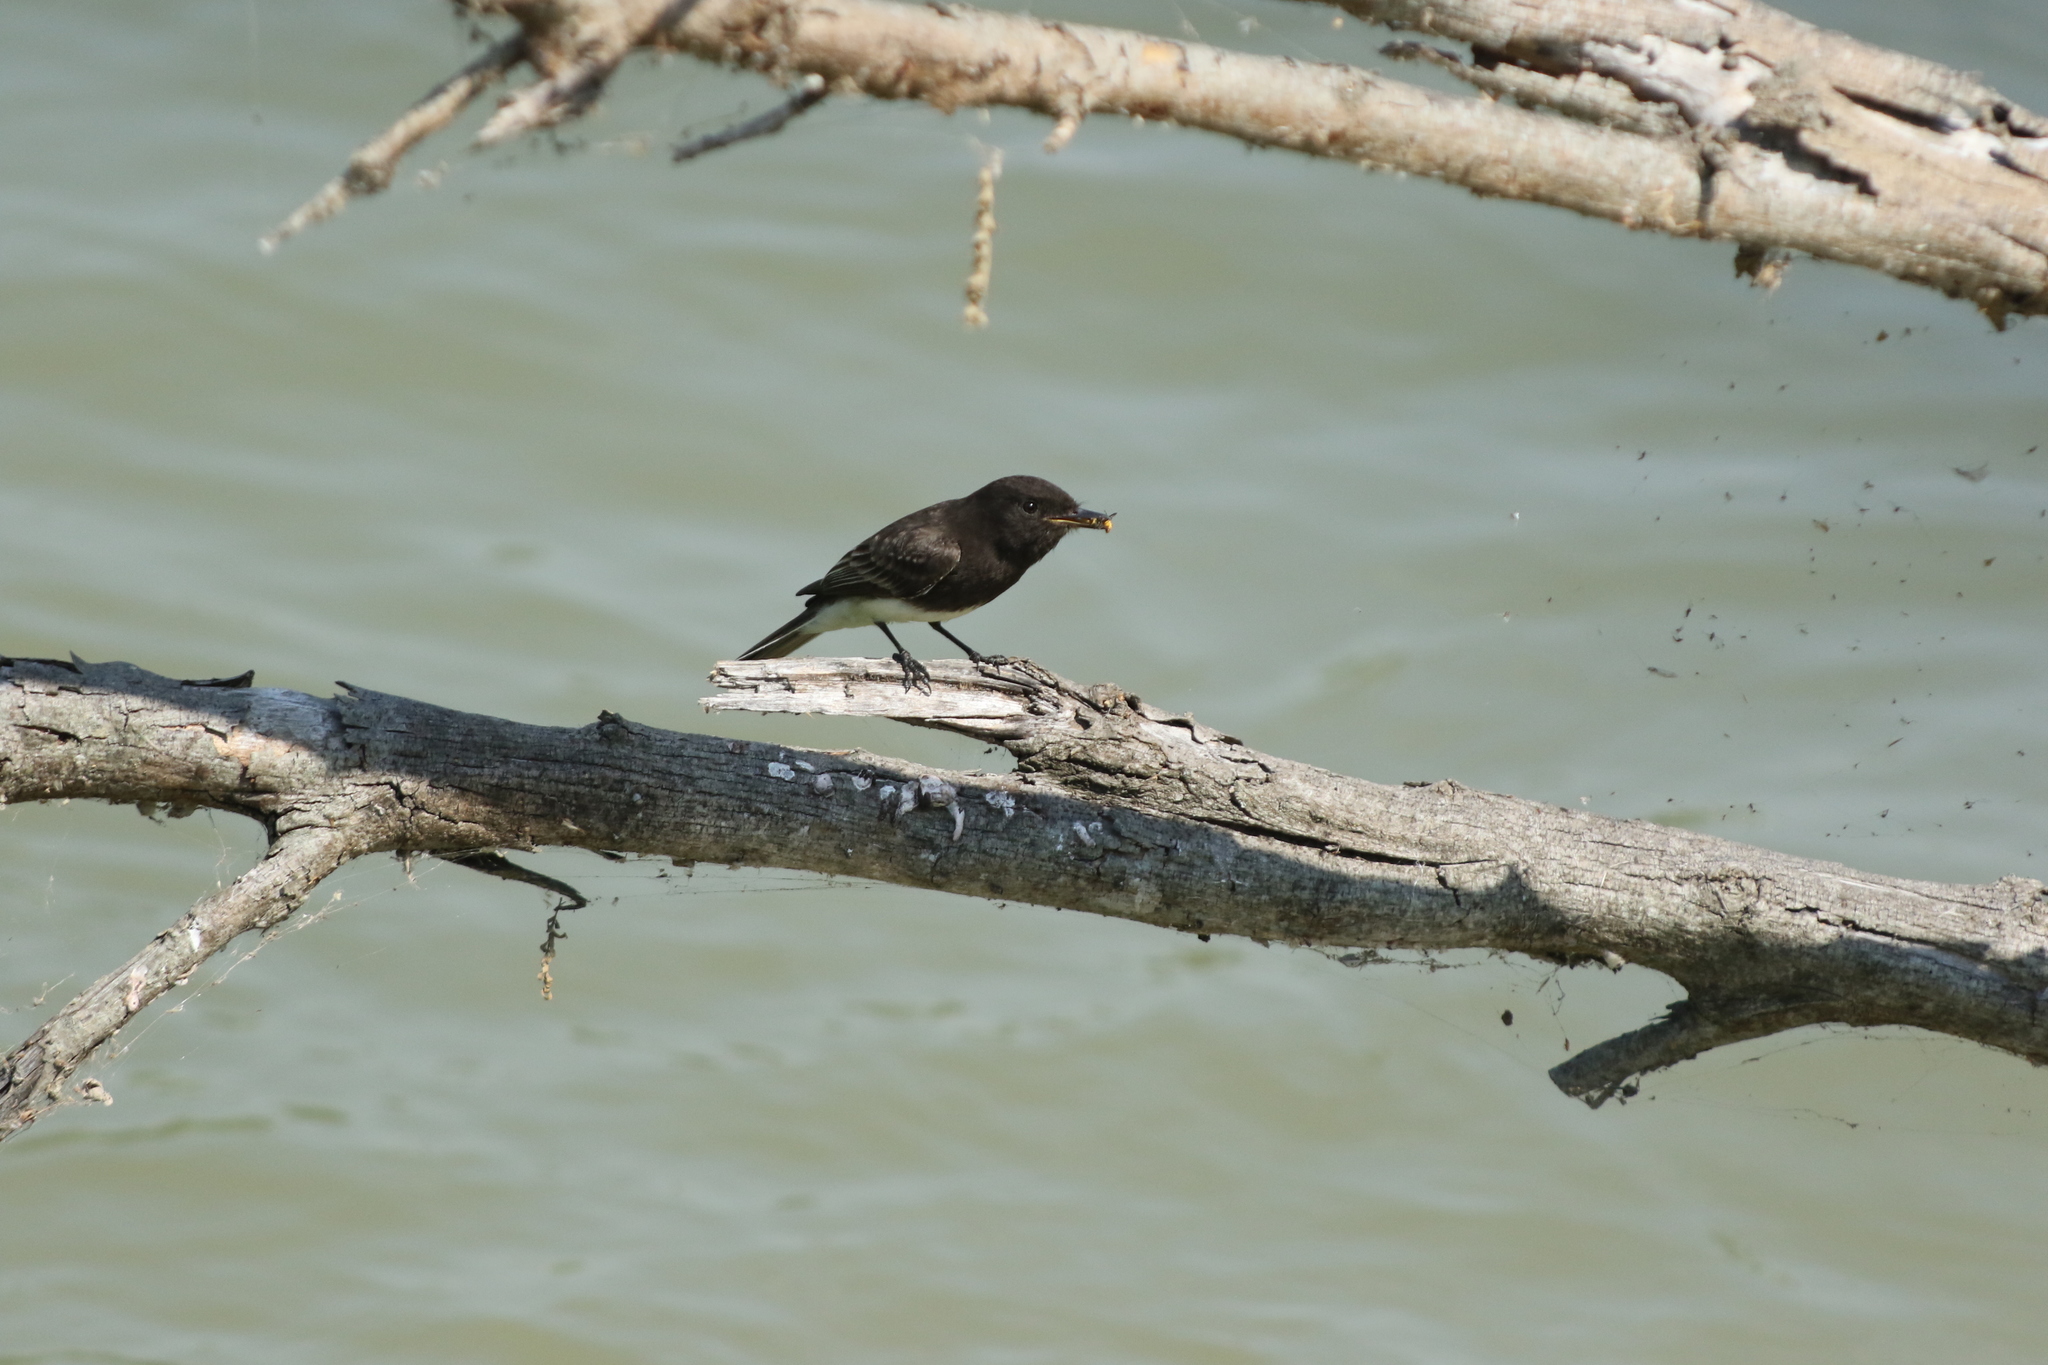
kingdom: Animalia
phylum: Chordata
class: Aves
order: Passeriformes
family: Tyrannidae
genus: Sayornis
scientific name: Sayornis nigricans
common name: Black phoebe
